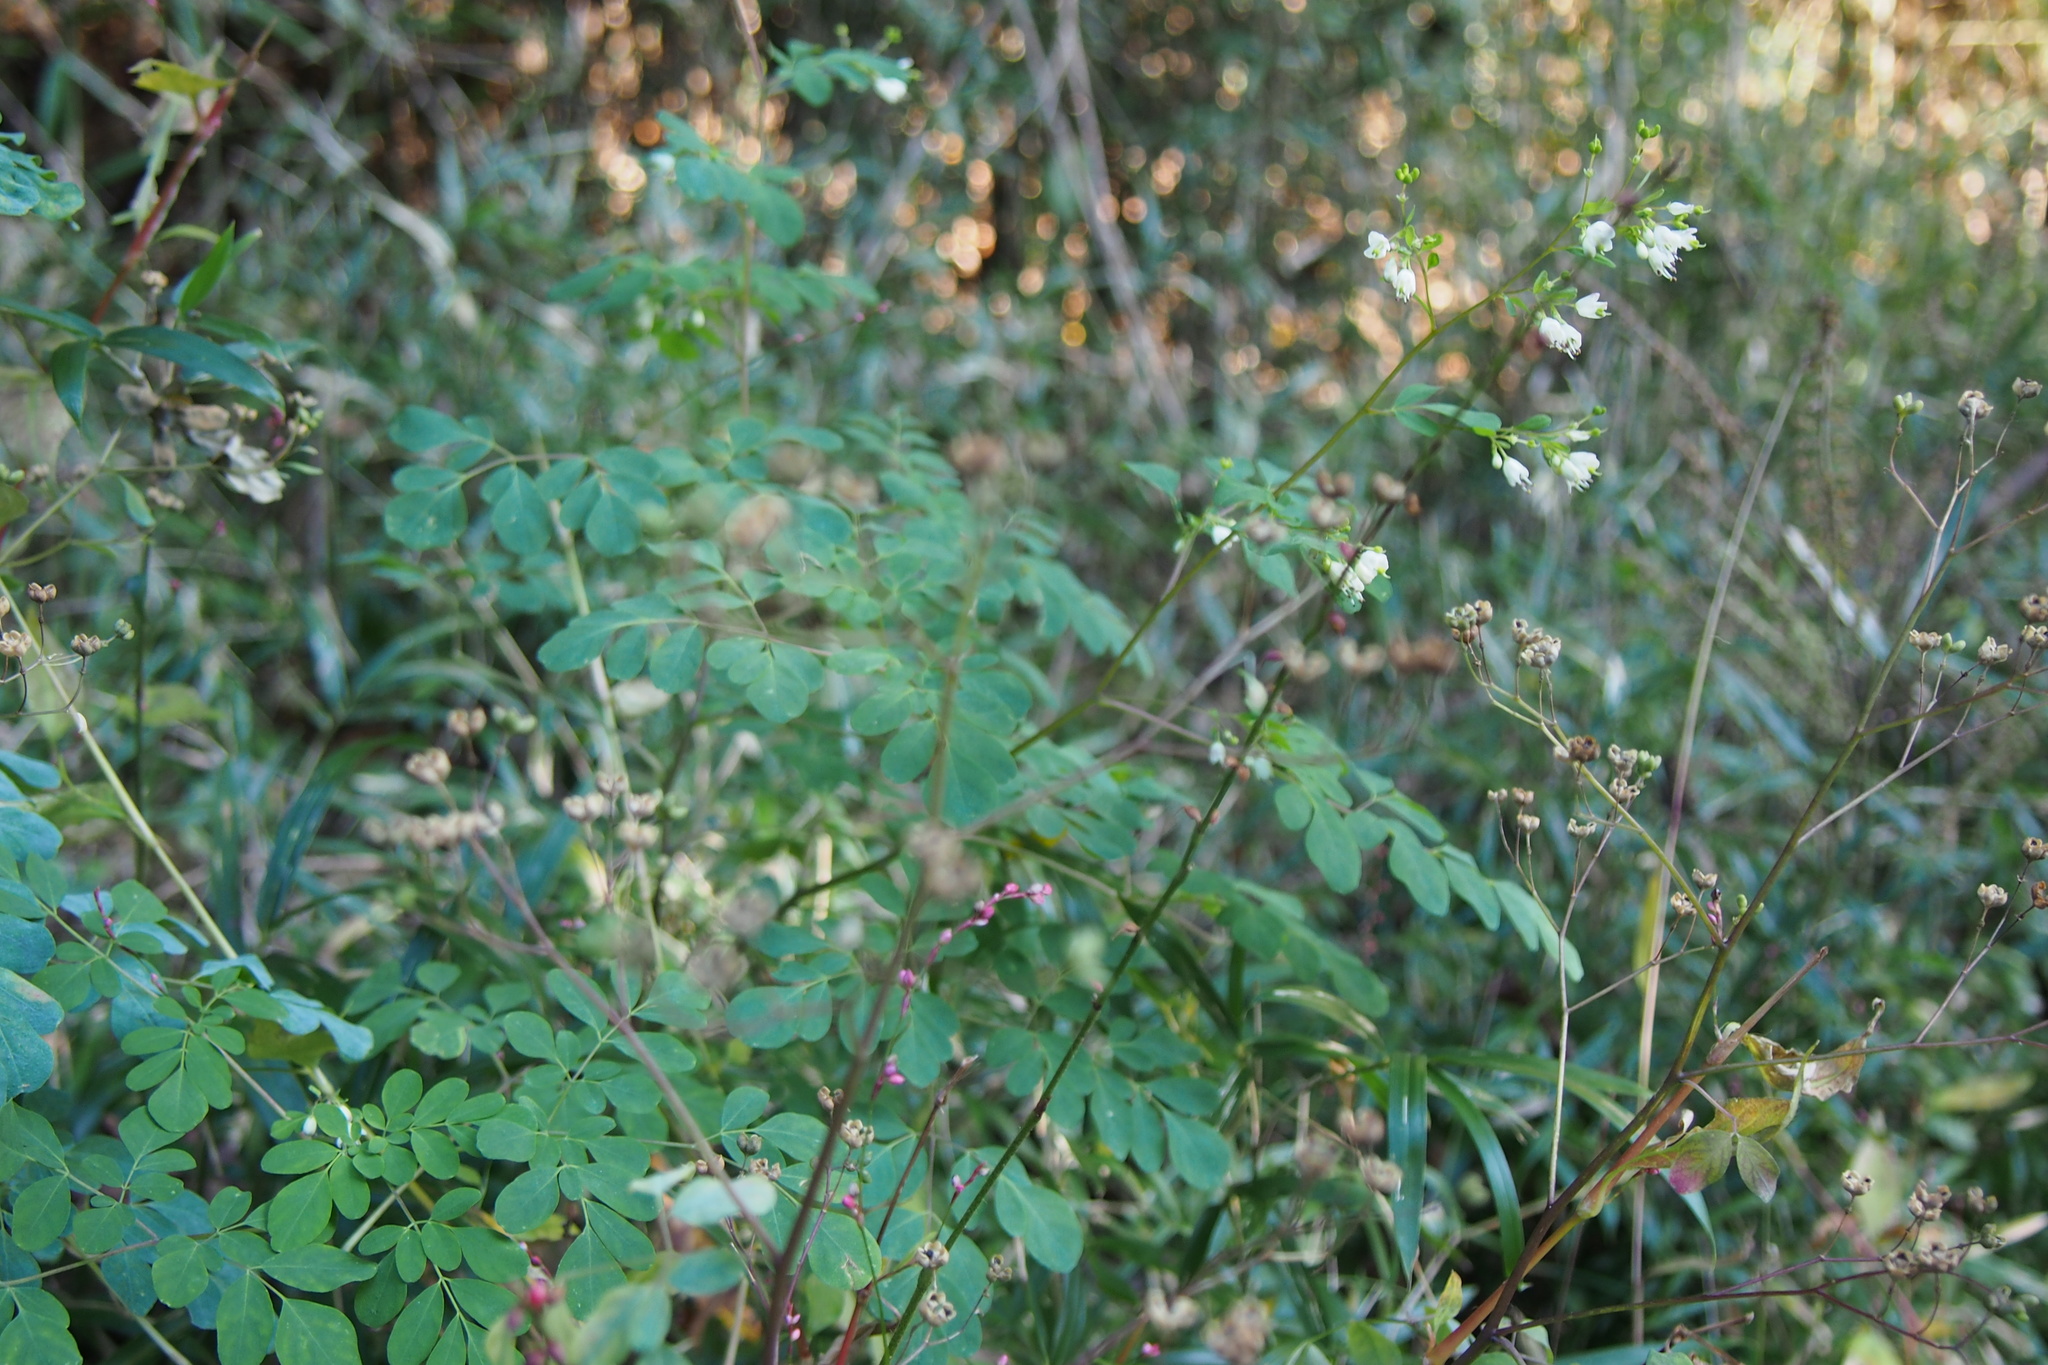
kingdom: Plantae
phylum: Tracheophyta
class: Magnoliopsida
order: Sapindales
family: Rutaceae
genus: Boenninghausenia
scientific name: Boenninghausenia albiflora
